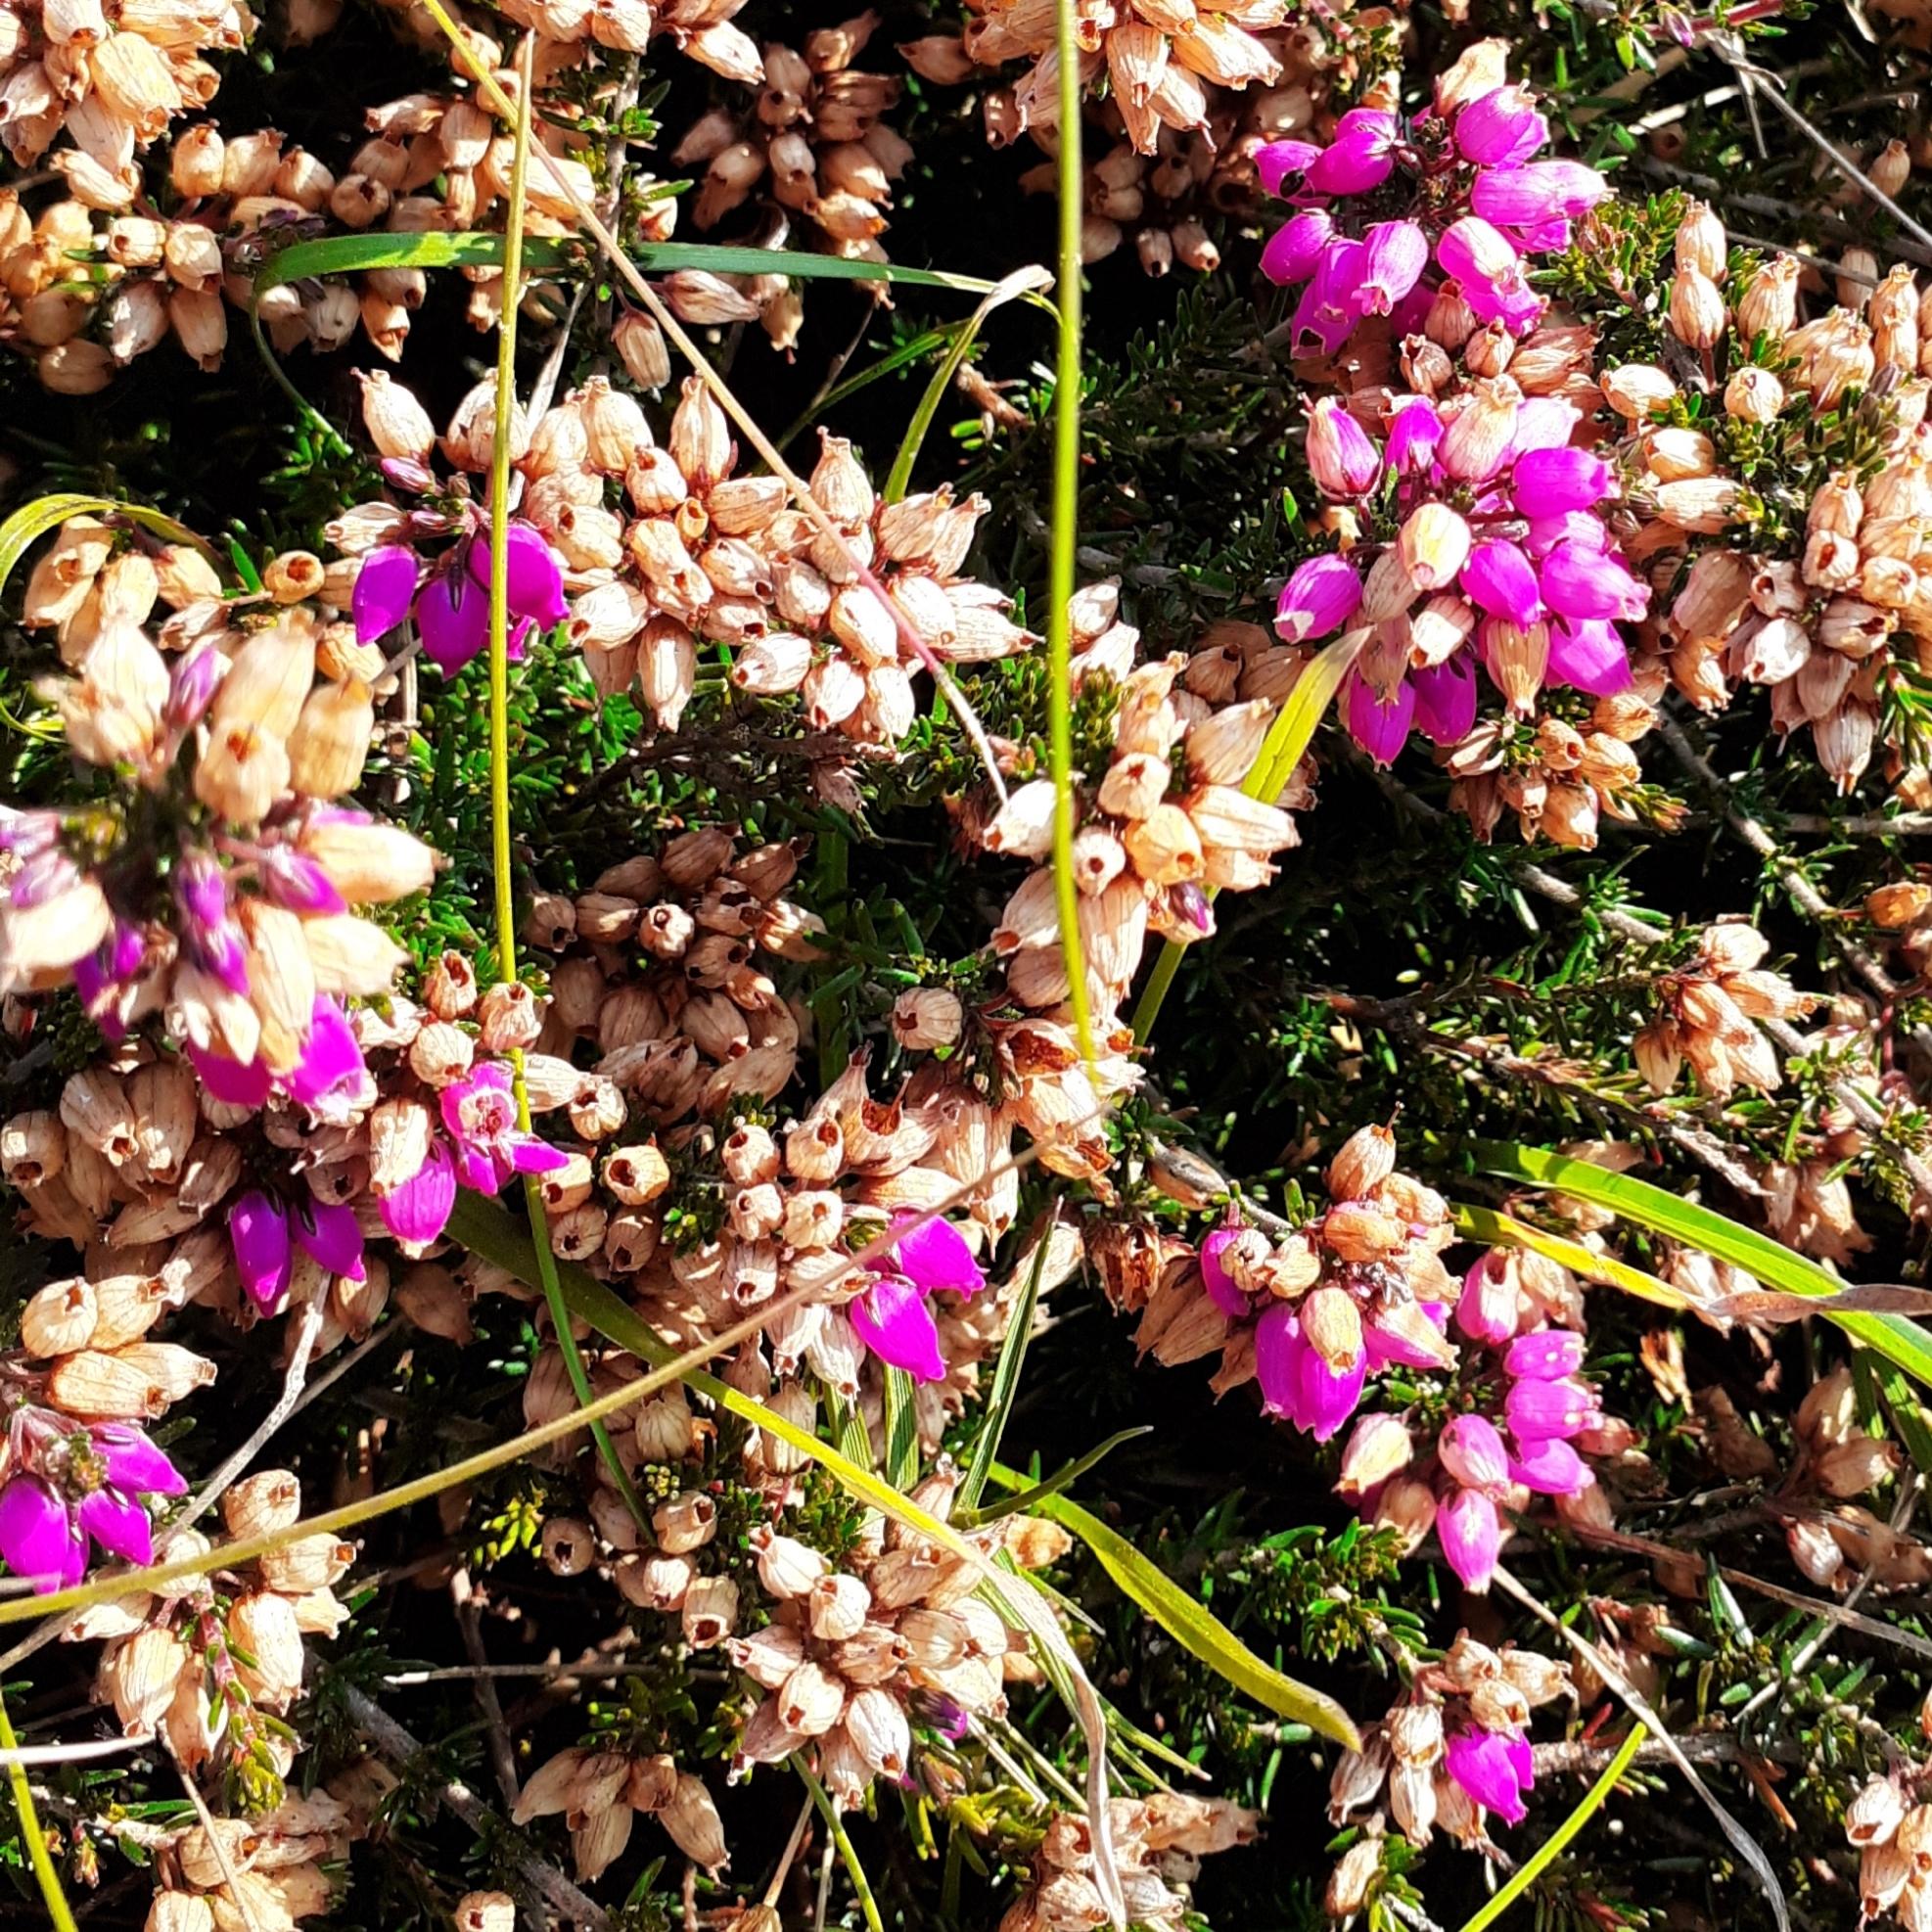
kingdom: Plantae
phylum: Tracheophyta
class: Magnoliopsida
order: Ericales
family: Ericaceae
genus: Erica
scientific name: Erica cinerea
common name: Bell heather
